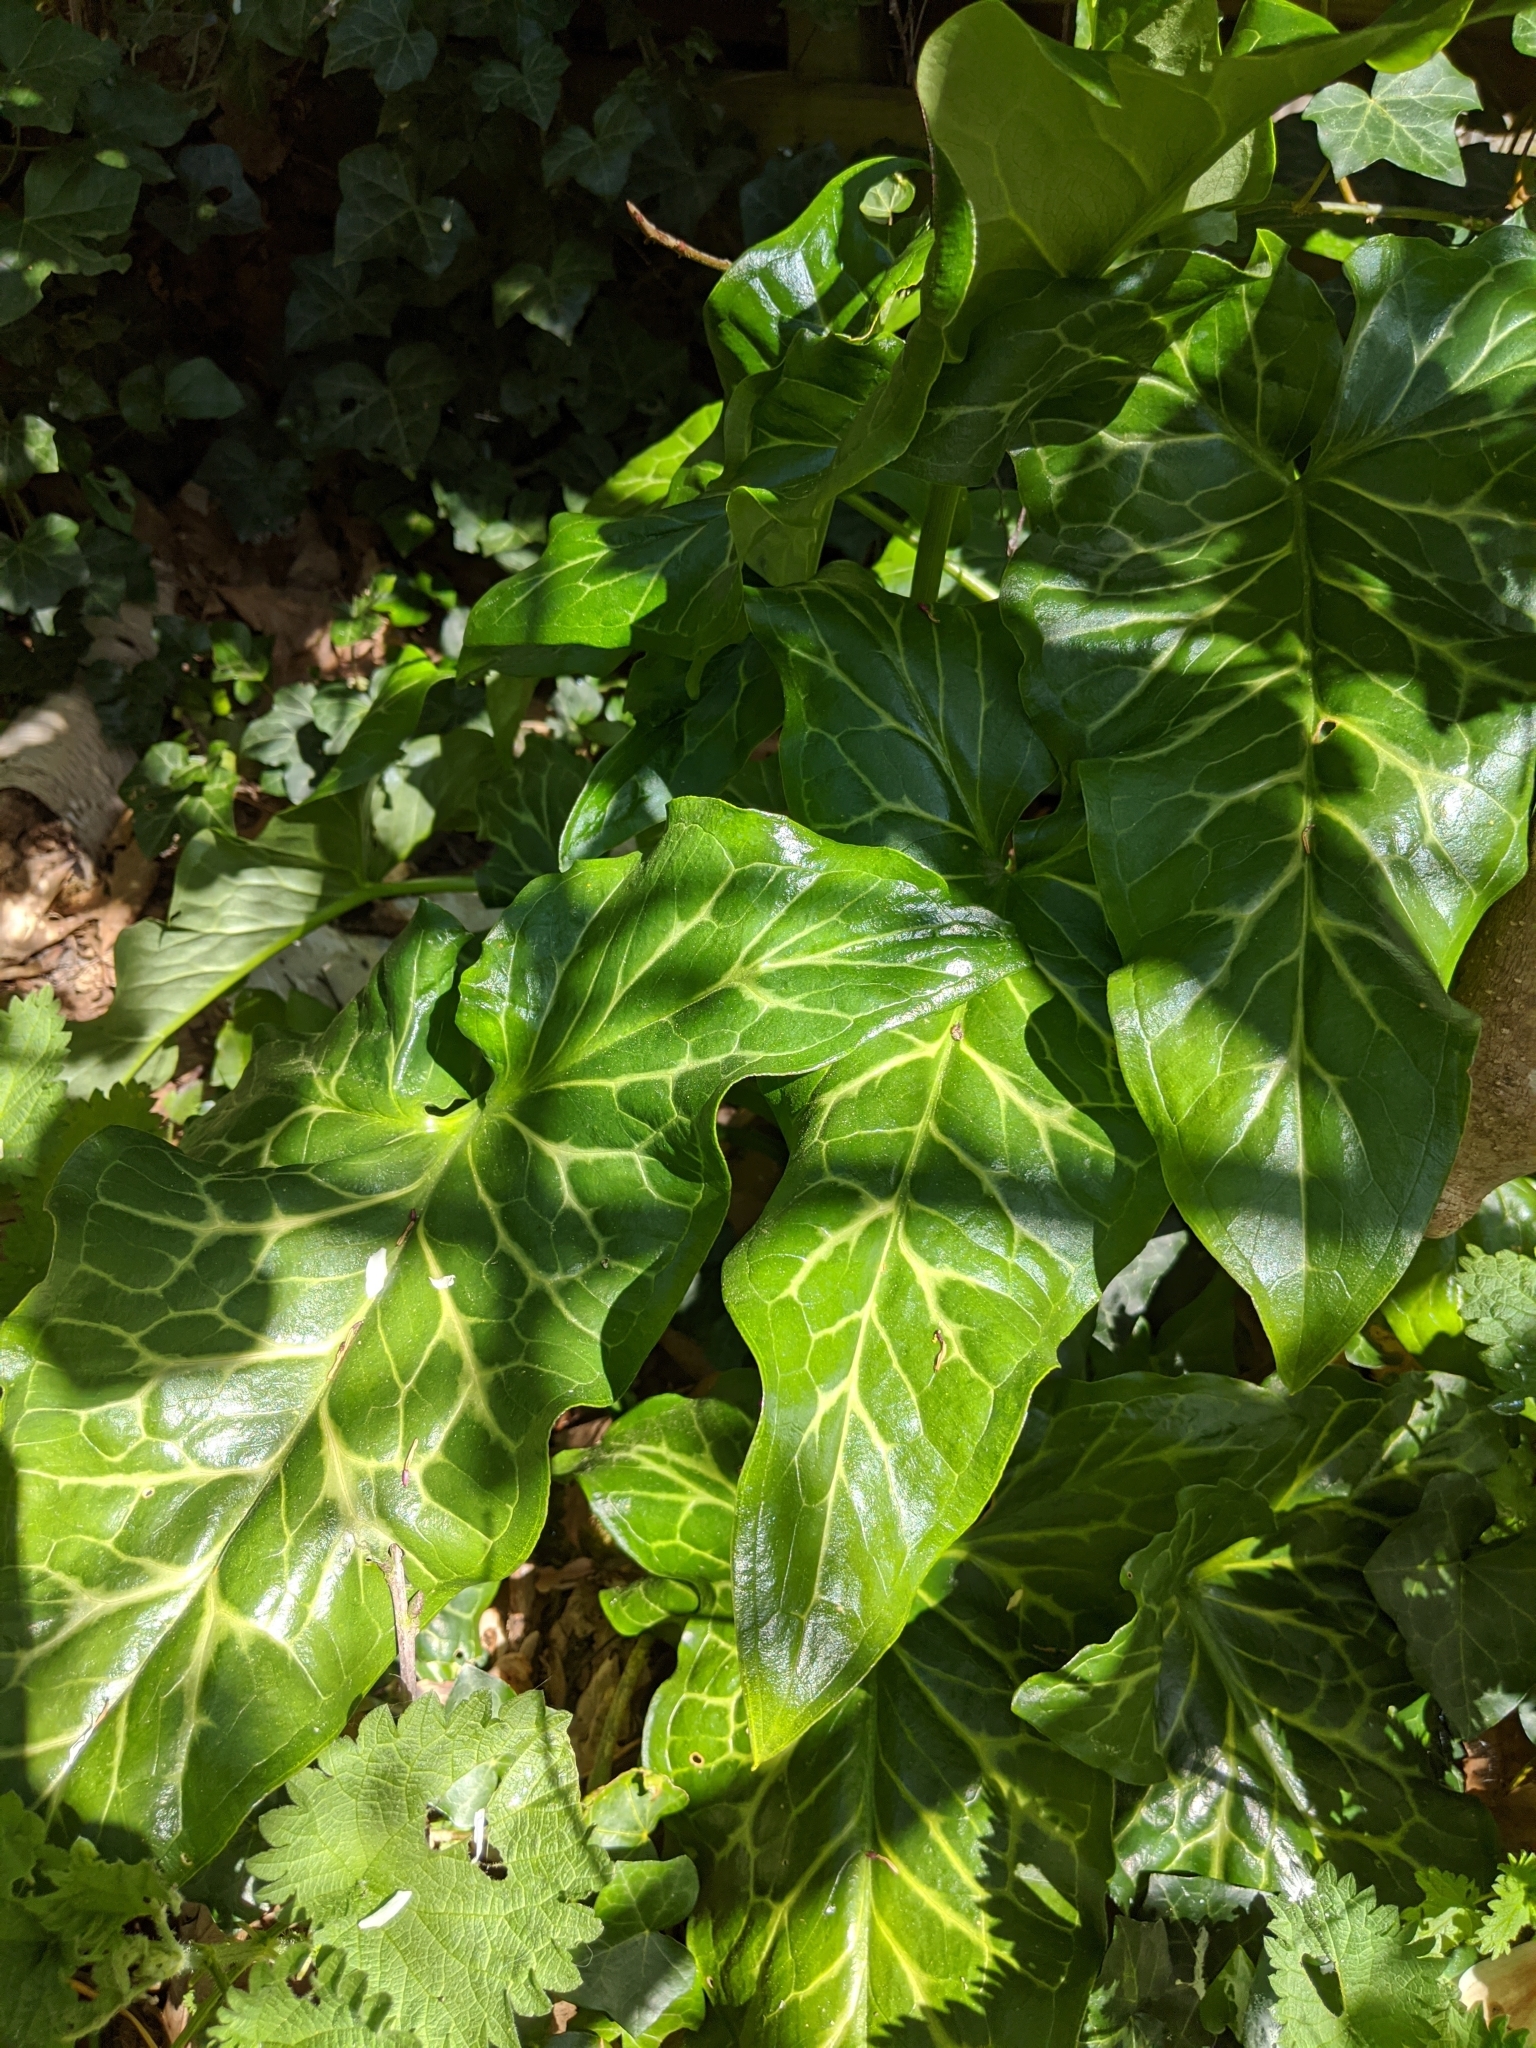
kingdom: Plantae
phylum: Tracheophyta
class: Liliopsida
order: Alismatales
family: Araceae
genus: Arum
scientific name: Arum italicum
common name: Italian lords-and-ladies
